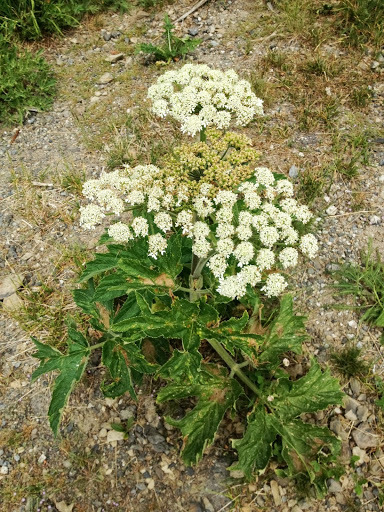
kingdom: Plantae
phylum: Tracheophyta
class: Magnoliopsida
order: Apiales
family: Apiaceae
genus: Heracleum
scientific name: Heracleum maximum
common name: American cow parsnip
